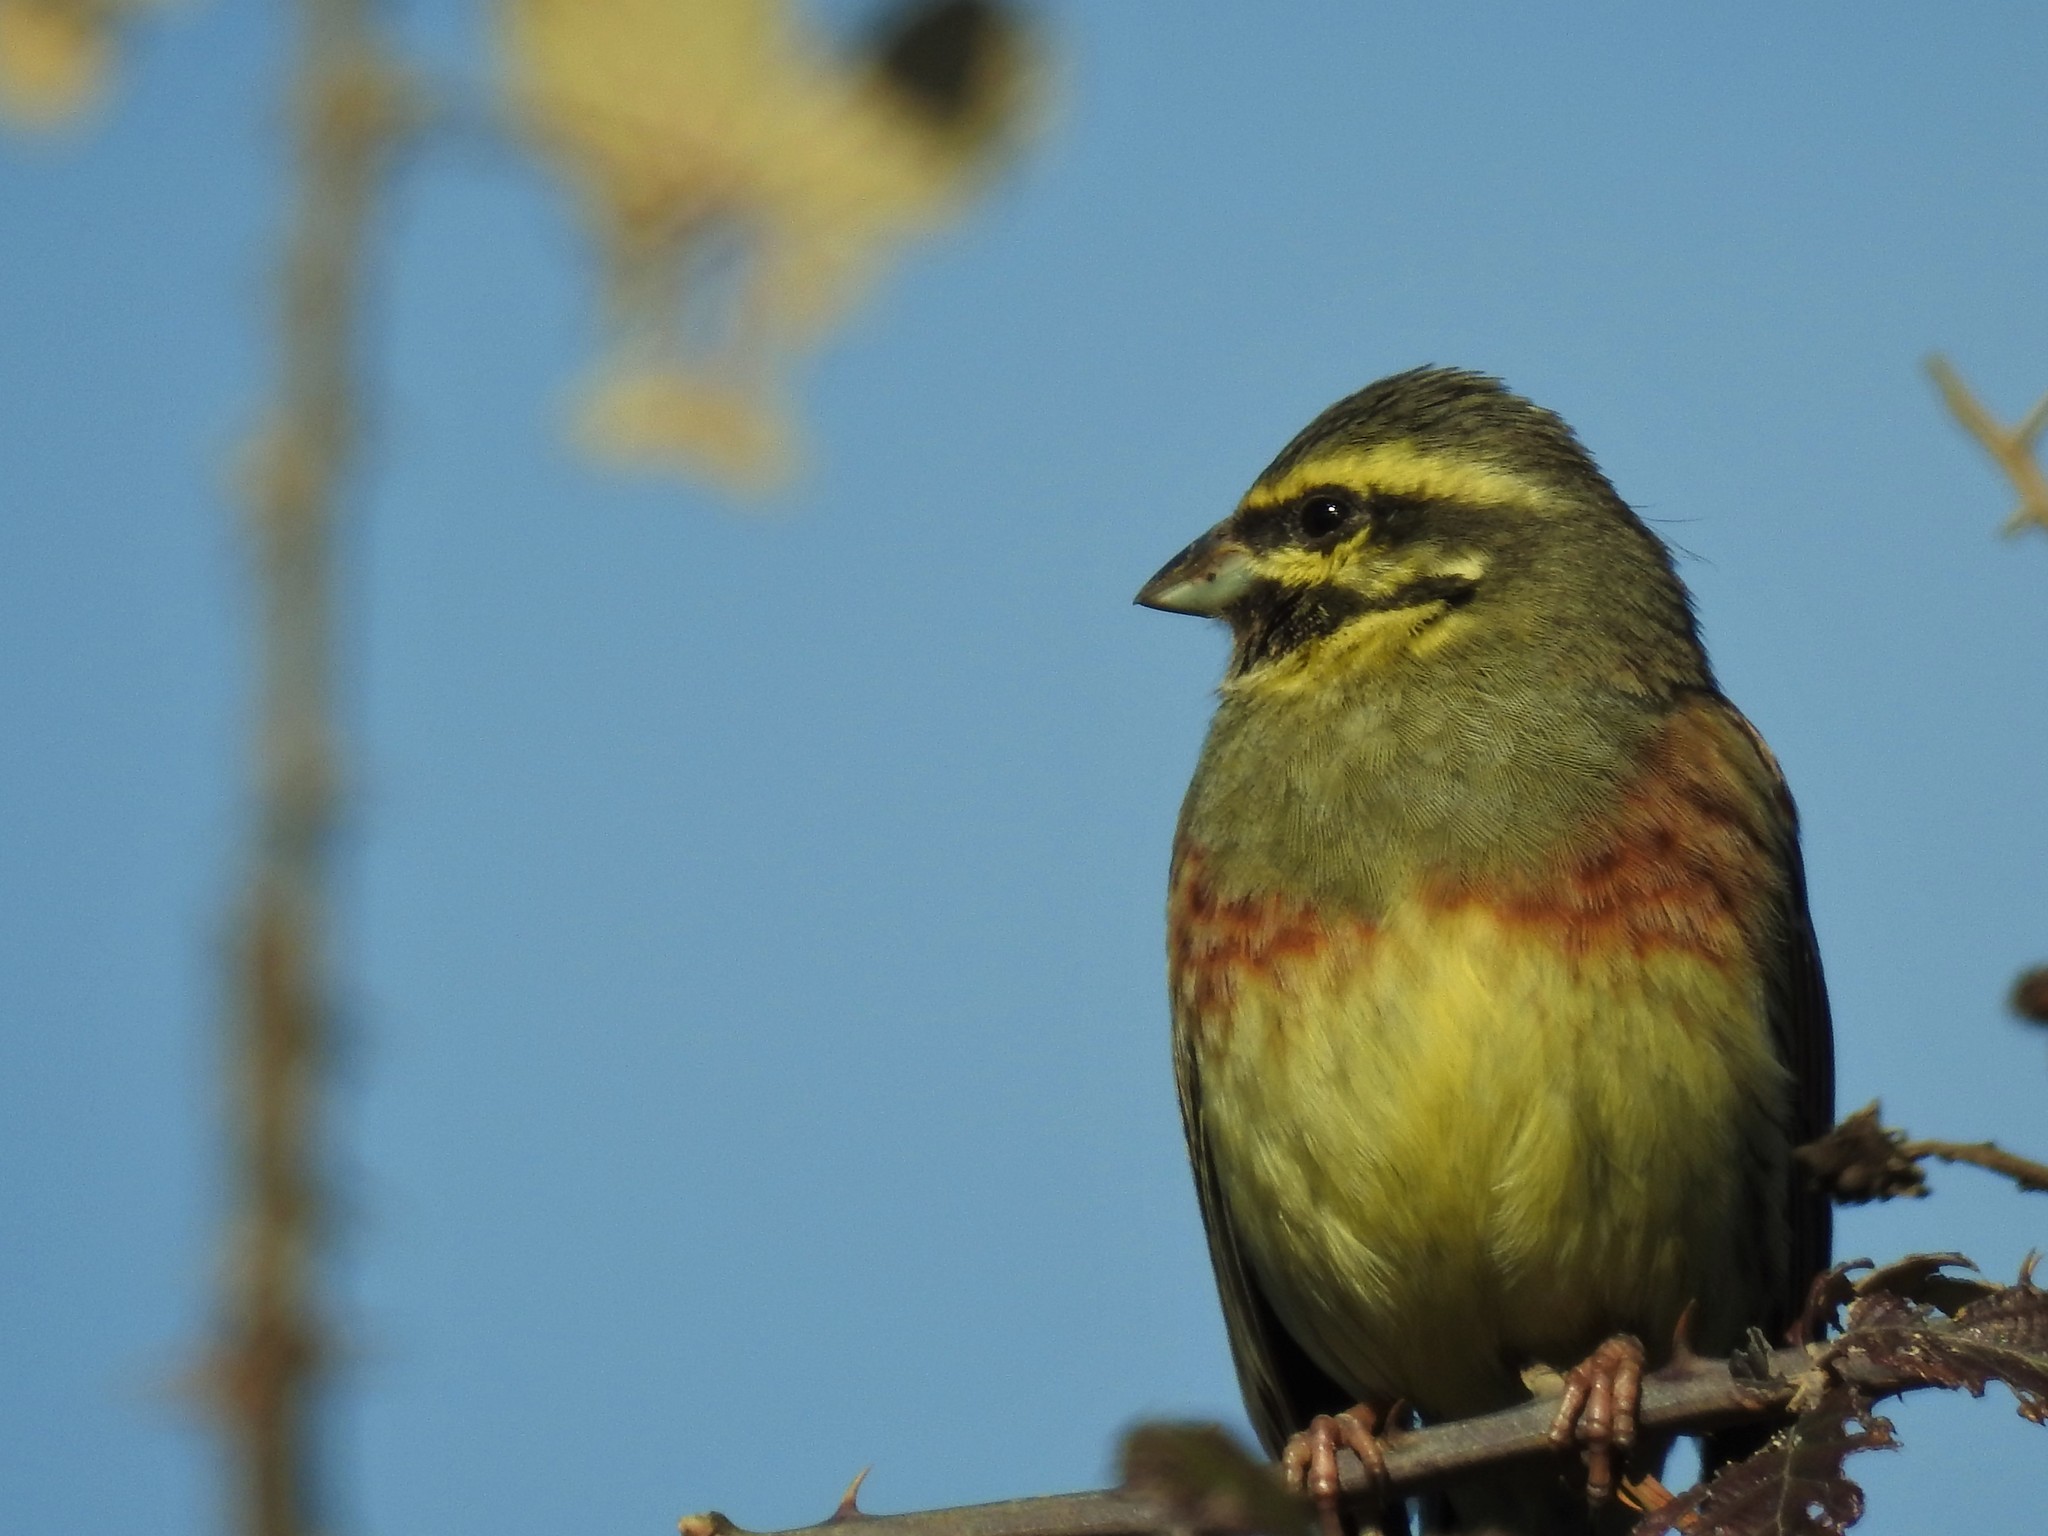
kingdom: Animalia
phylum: Chordata
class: Aves
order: Passeriformes
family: Emberizidae
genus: Emberiza
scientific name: Emberiza cirlus
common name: Cirl bunting
